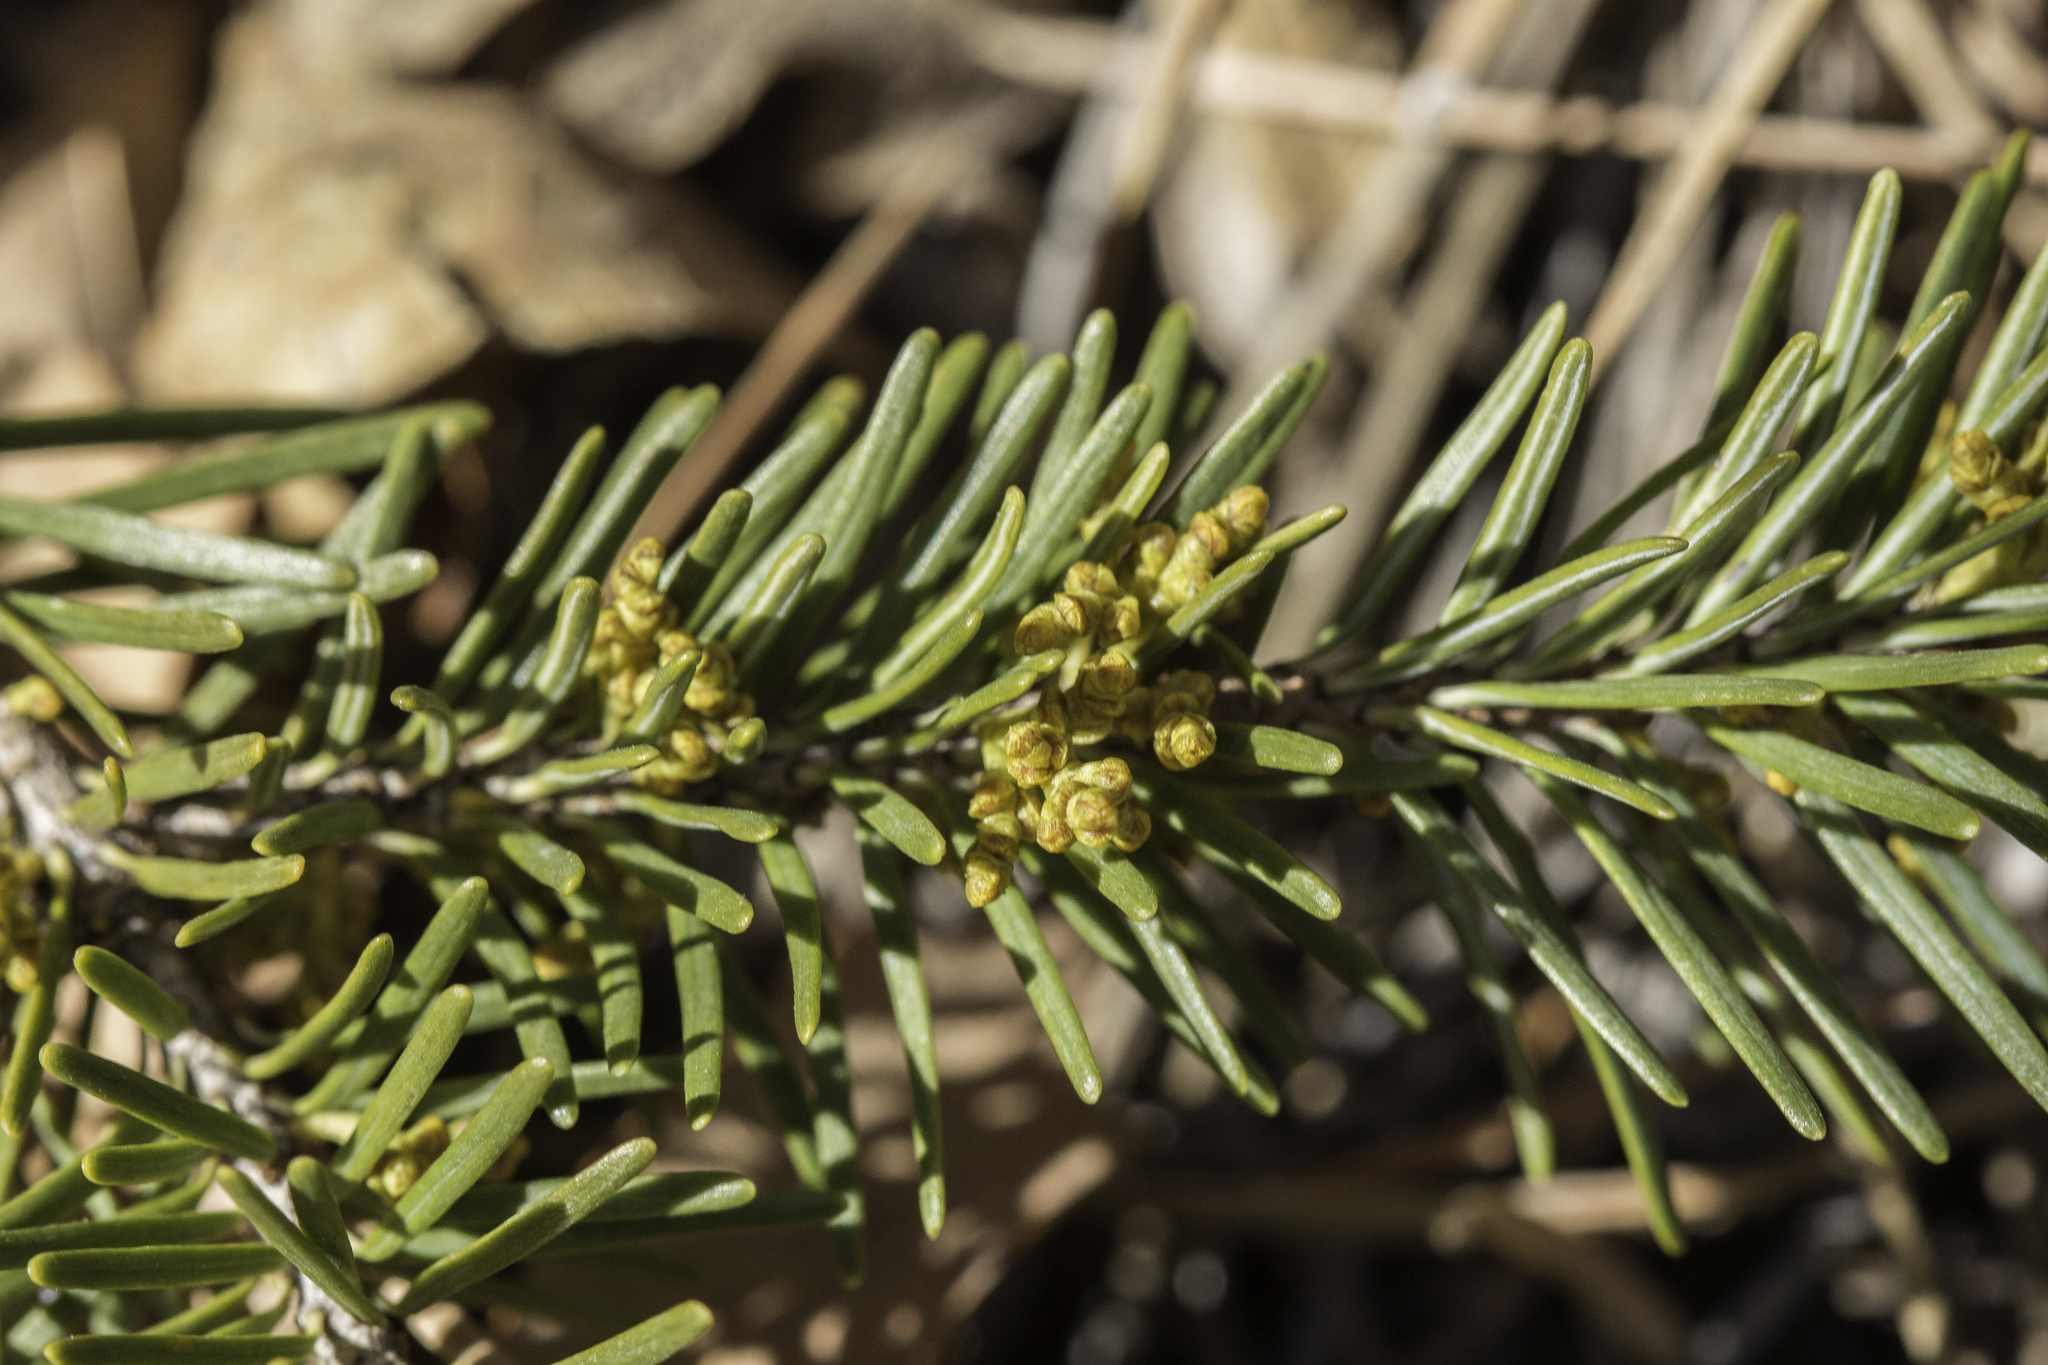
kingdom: Plantae
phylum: Tracheophyta
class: Magnoliopsida
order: Santalales
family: Viscaceae
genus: Arceuthobium
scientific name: Arceuthobium douglasii
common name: Douglas' dwarf mistletoe
